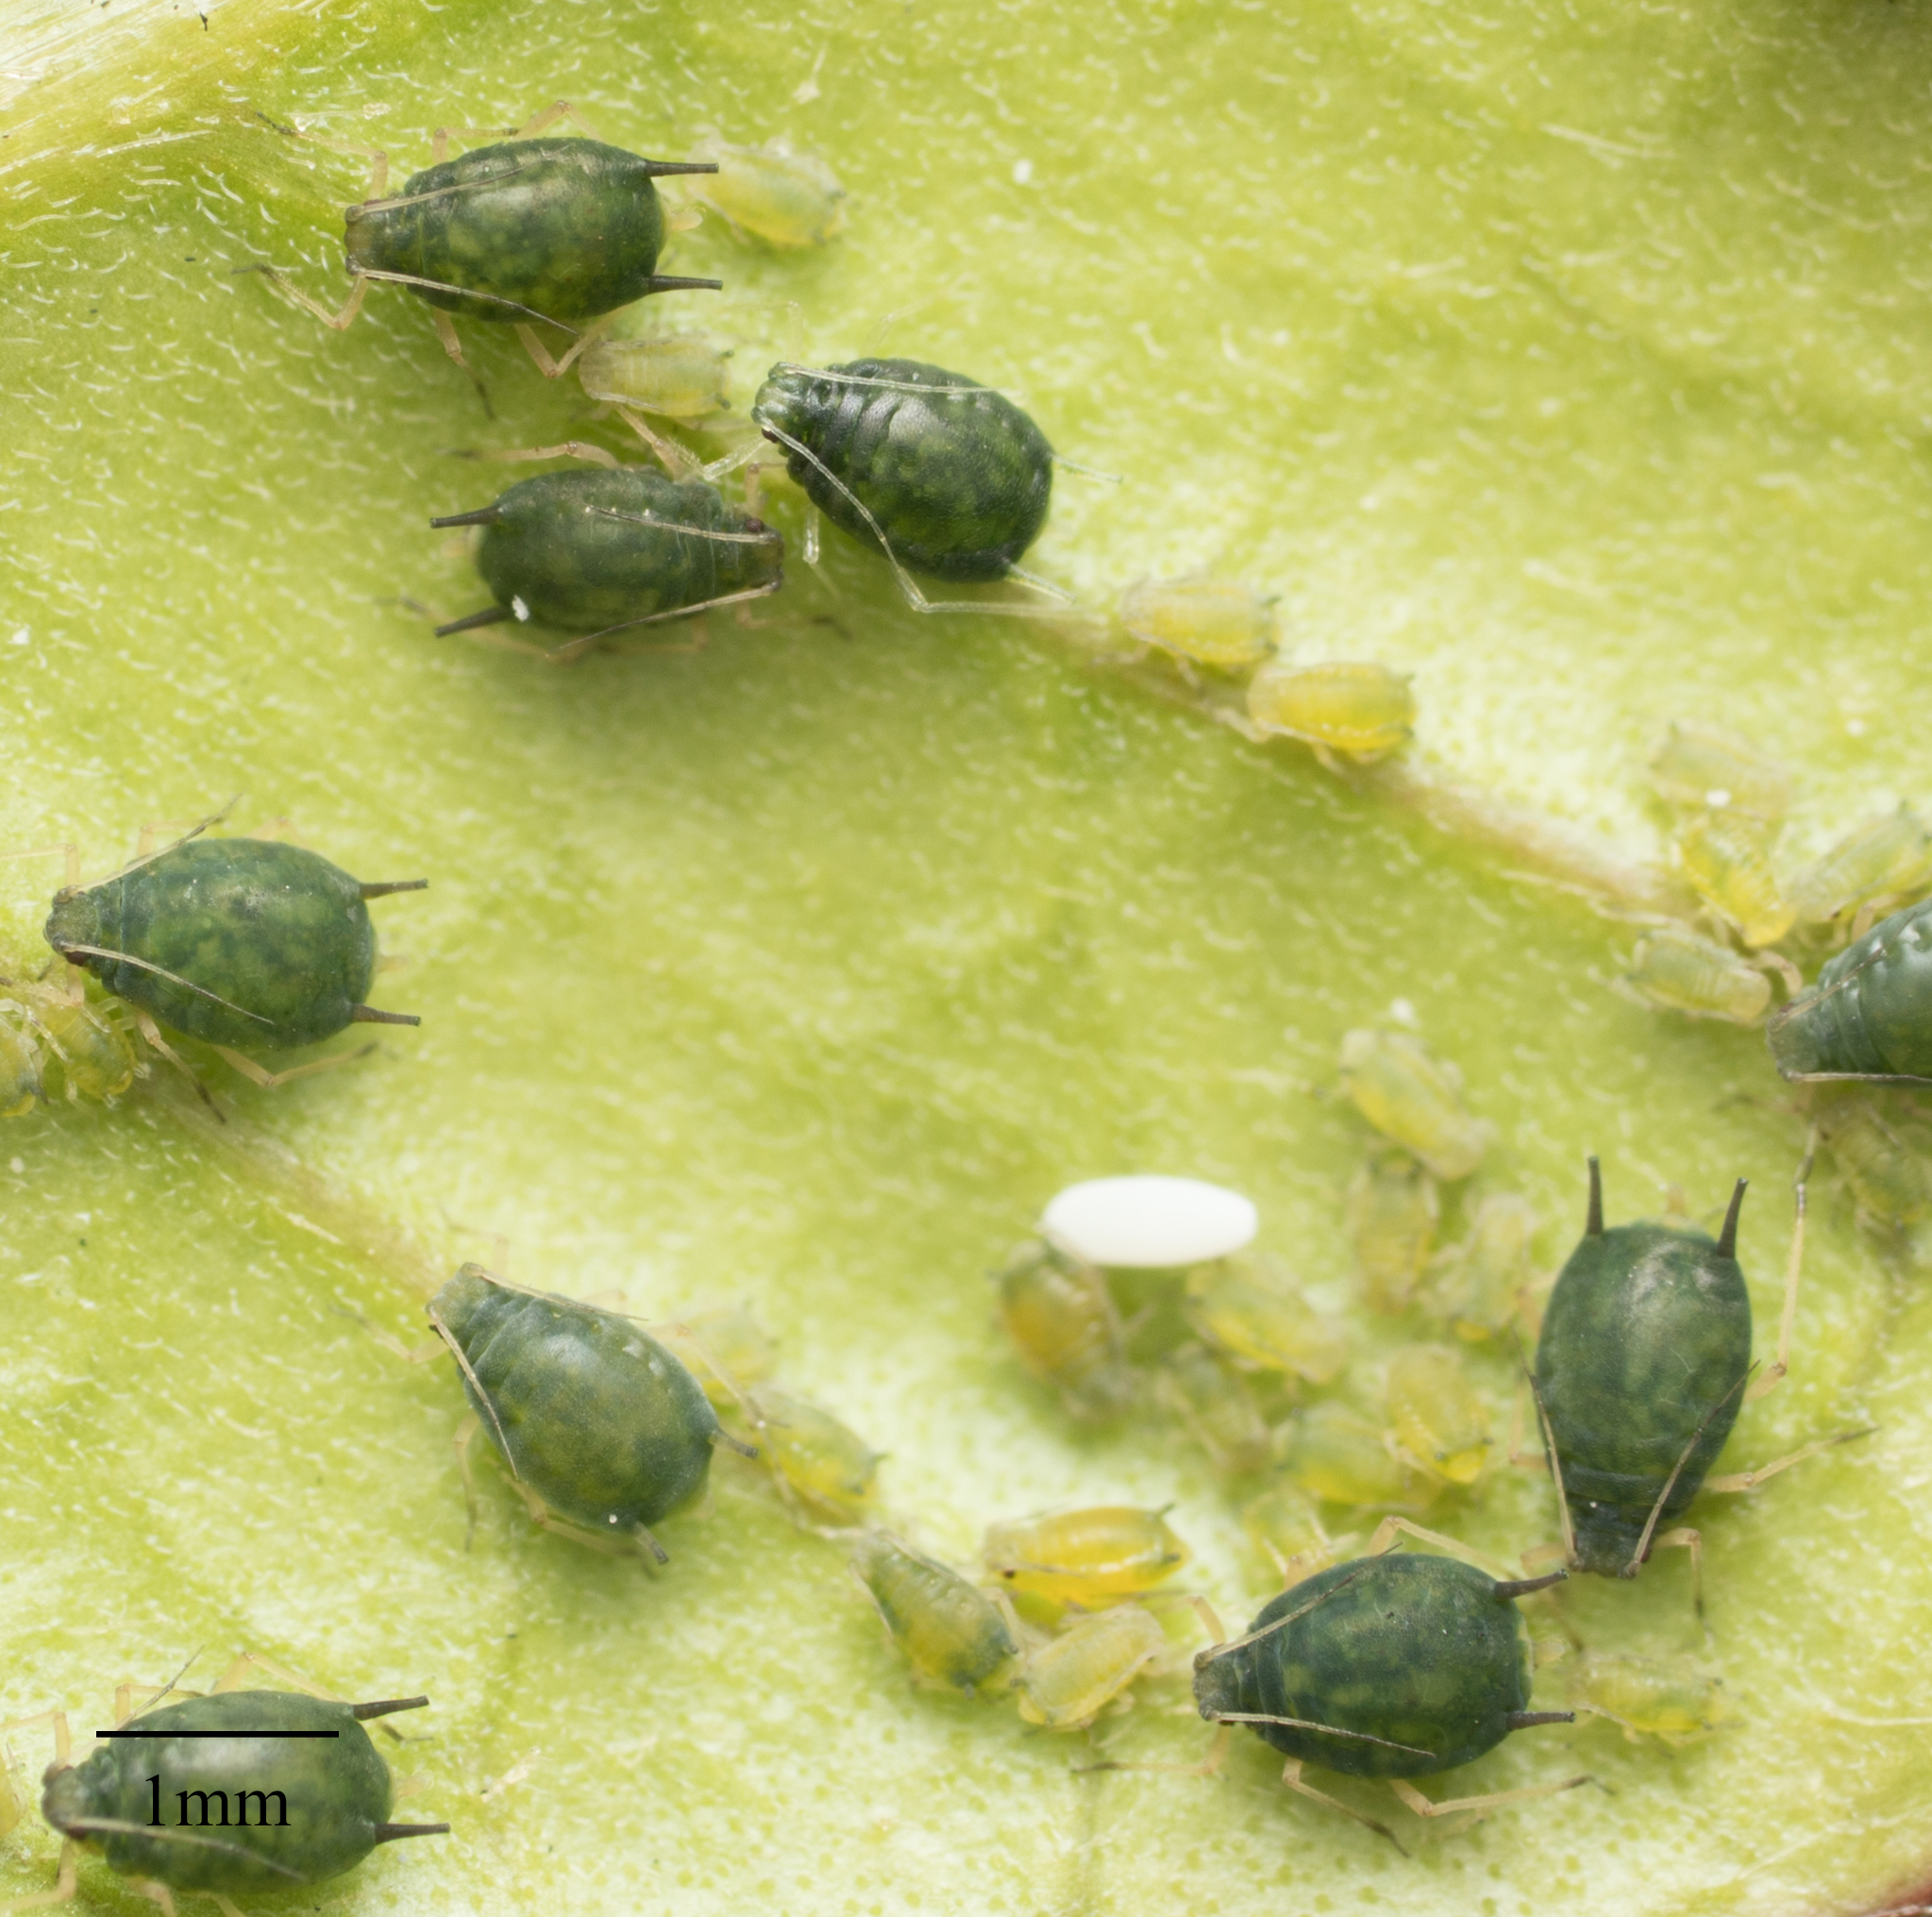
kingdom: Animalia
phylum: Arthropoda
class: Insecta
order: Hemiptera
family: Aphididae
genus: Aphis
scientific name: Aphis gossypii
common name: Melon aphid
